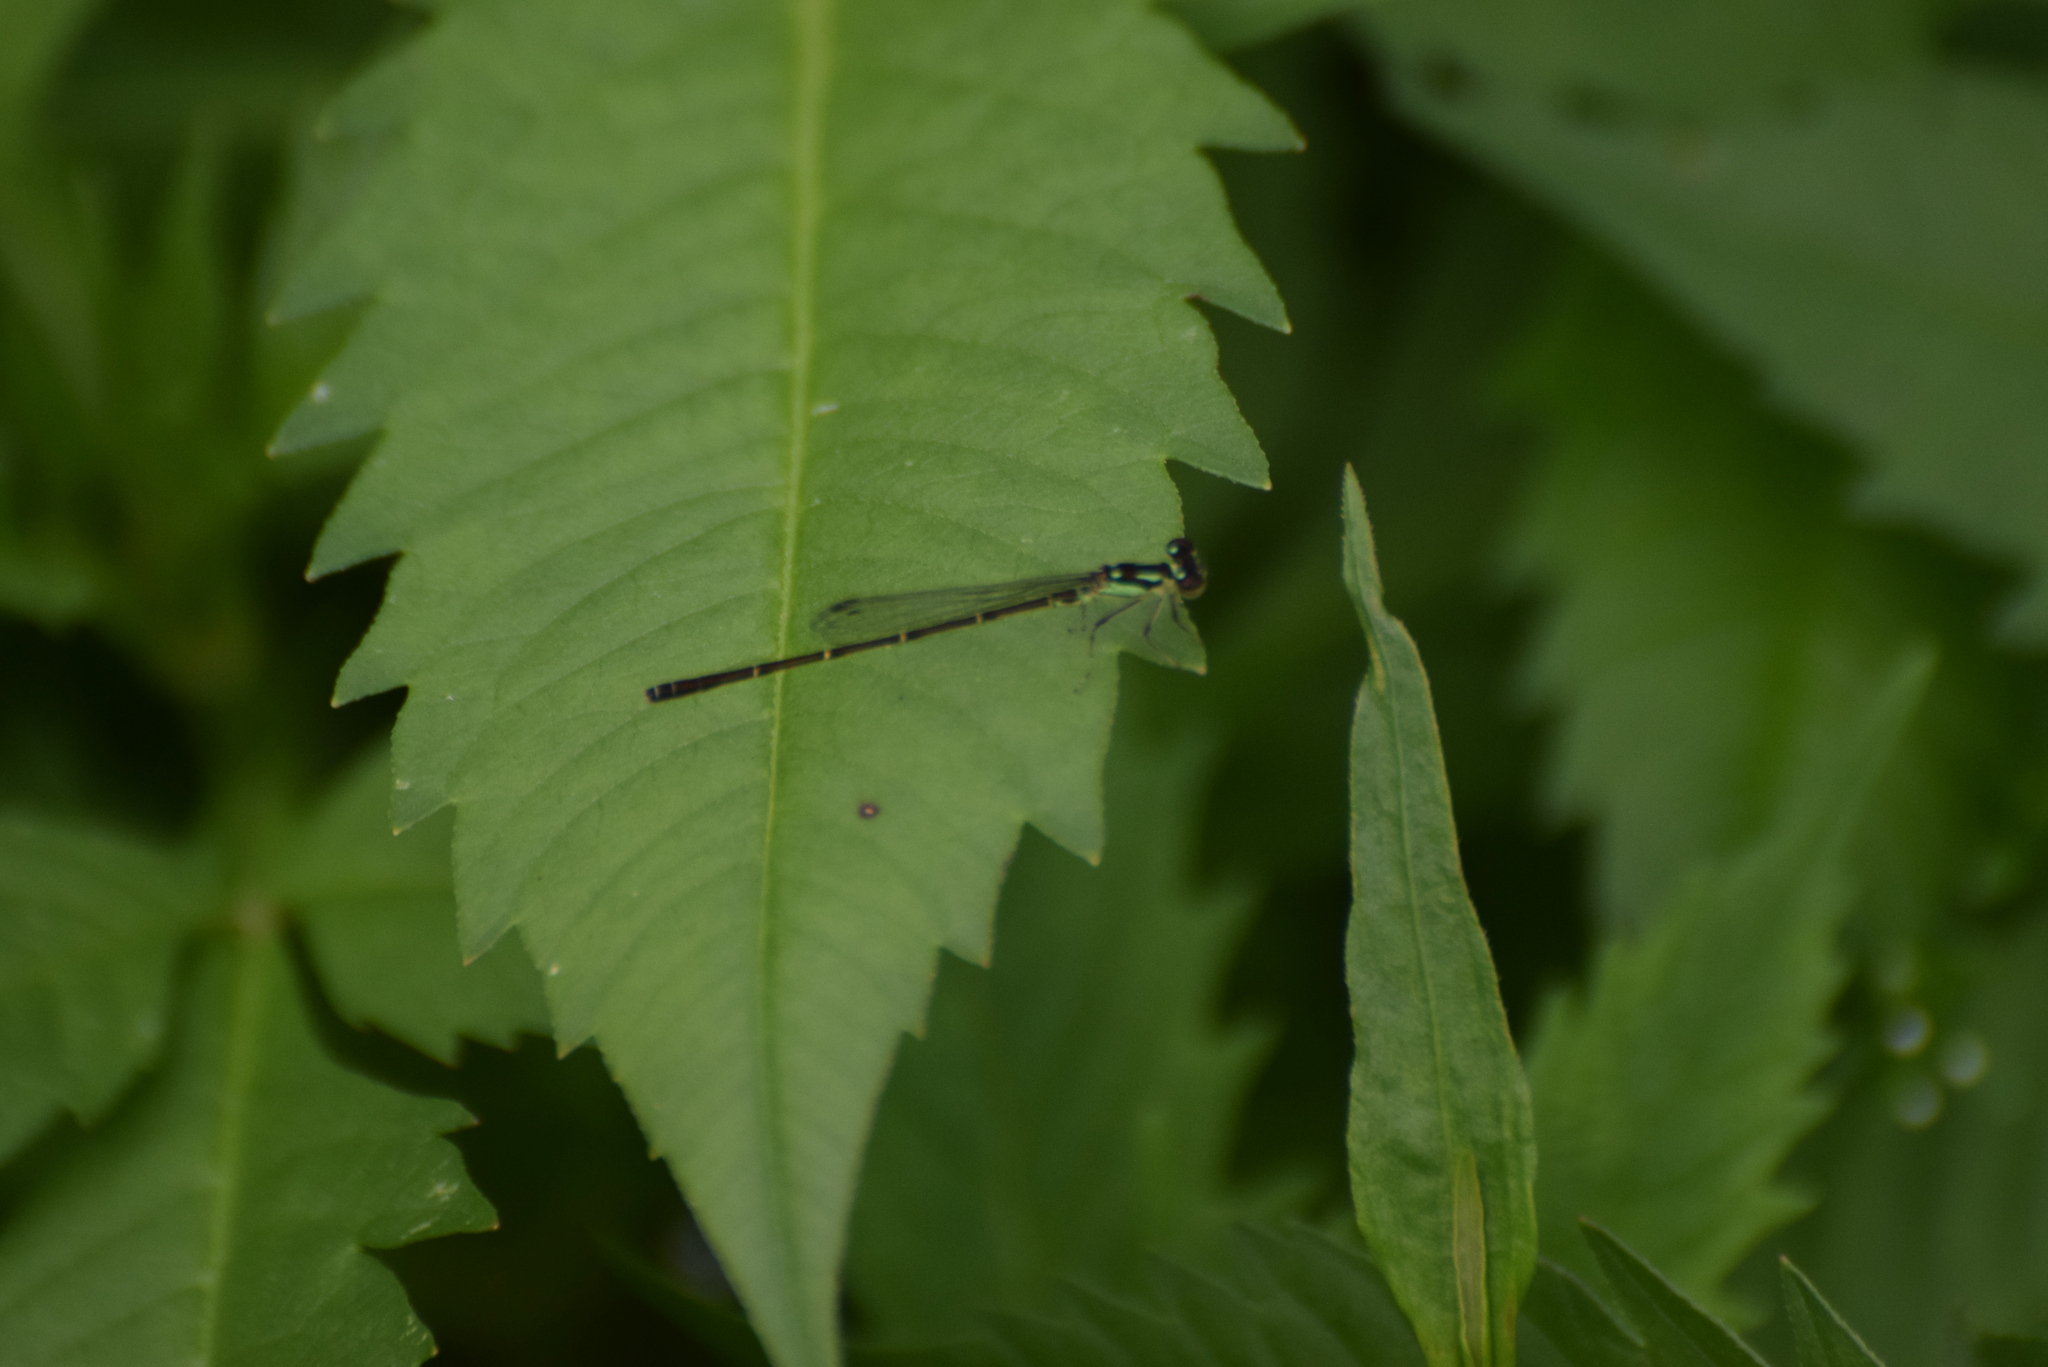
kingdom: Animalia
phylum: Arthropoda
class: Insecta
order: Odonata
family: Coenagrionidae
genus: Ischnura
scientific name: Ischnura posita
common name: Fragile forktail
